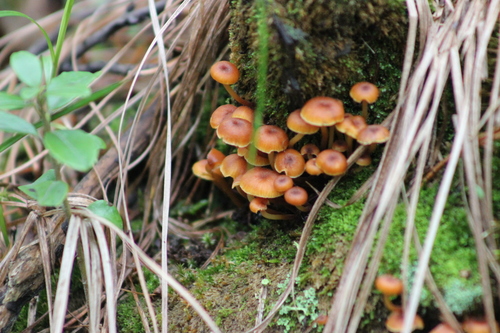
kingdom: Fungi
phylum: Basidiomycota
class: Agaricomycetes
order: Agaricales
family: Mycenaceae
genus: Xeromphalina
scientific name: Xeromphalina campanella
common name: Pinewood gingertail
